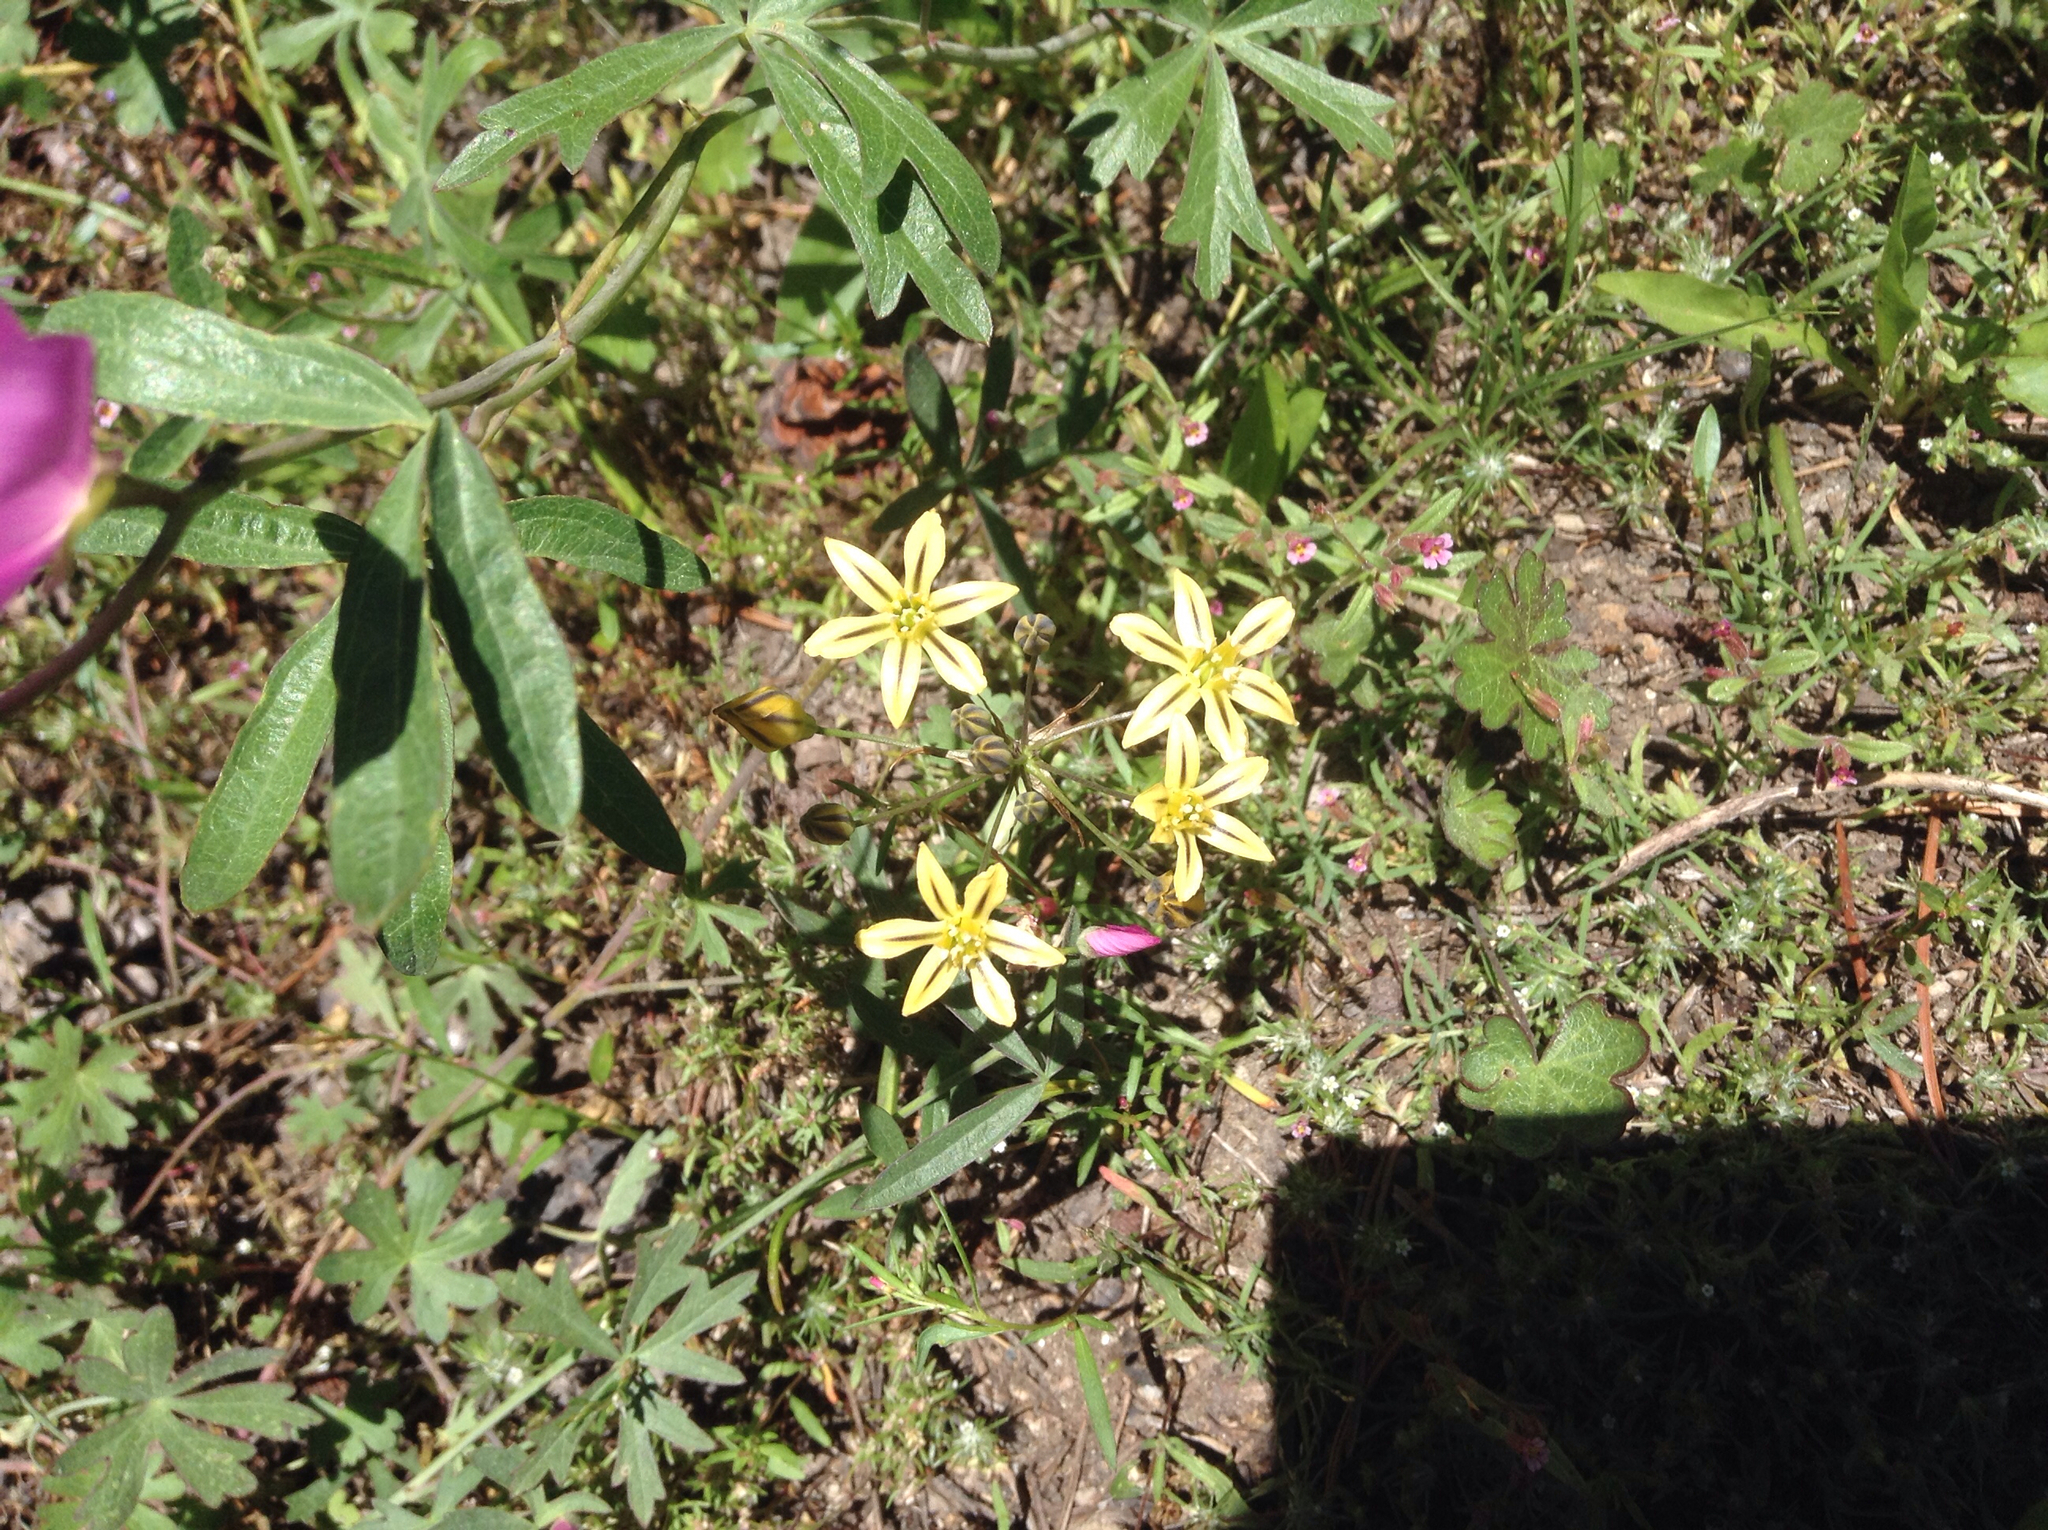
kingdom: Plantae
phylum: Tracheophyta
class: Liliopsida
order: Asparagales
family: Asparagaceae
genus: Triteleia
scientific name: Triteleia ixioides
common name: Yellow-brodiaea
